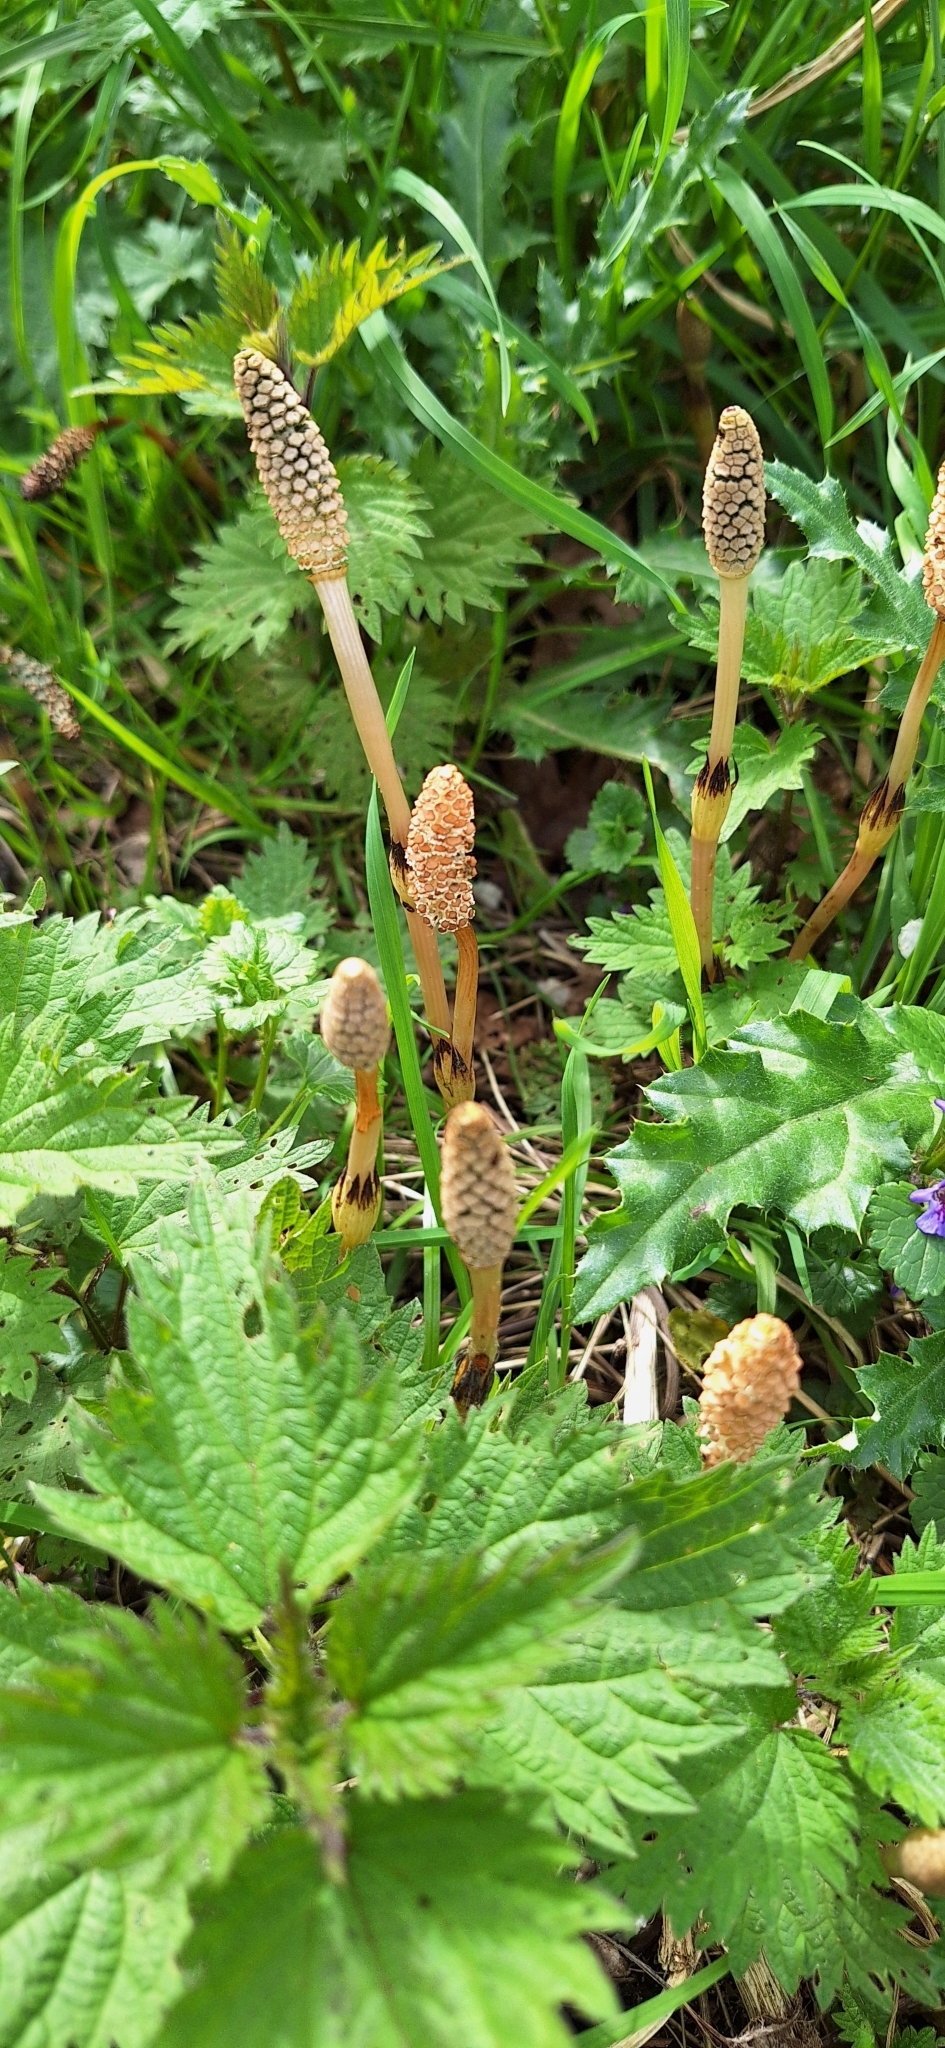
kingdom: Plantae
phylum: Tracheophyta
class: Polypodiopsida
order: Equisetales
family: Equisetaceae
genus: Equisetum
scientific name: Equisetum arvense
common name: Field horsetail
